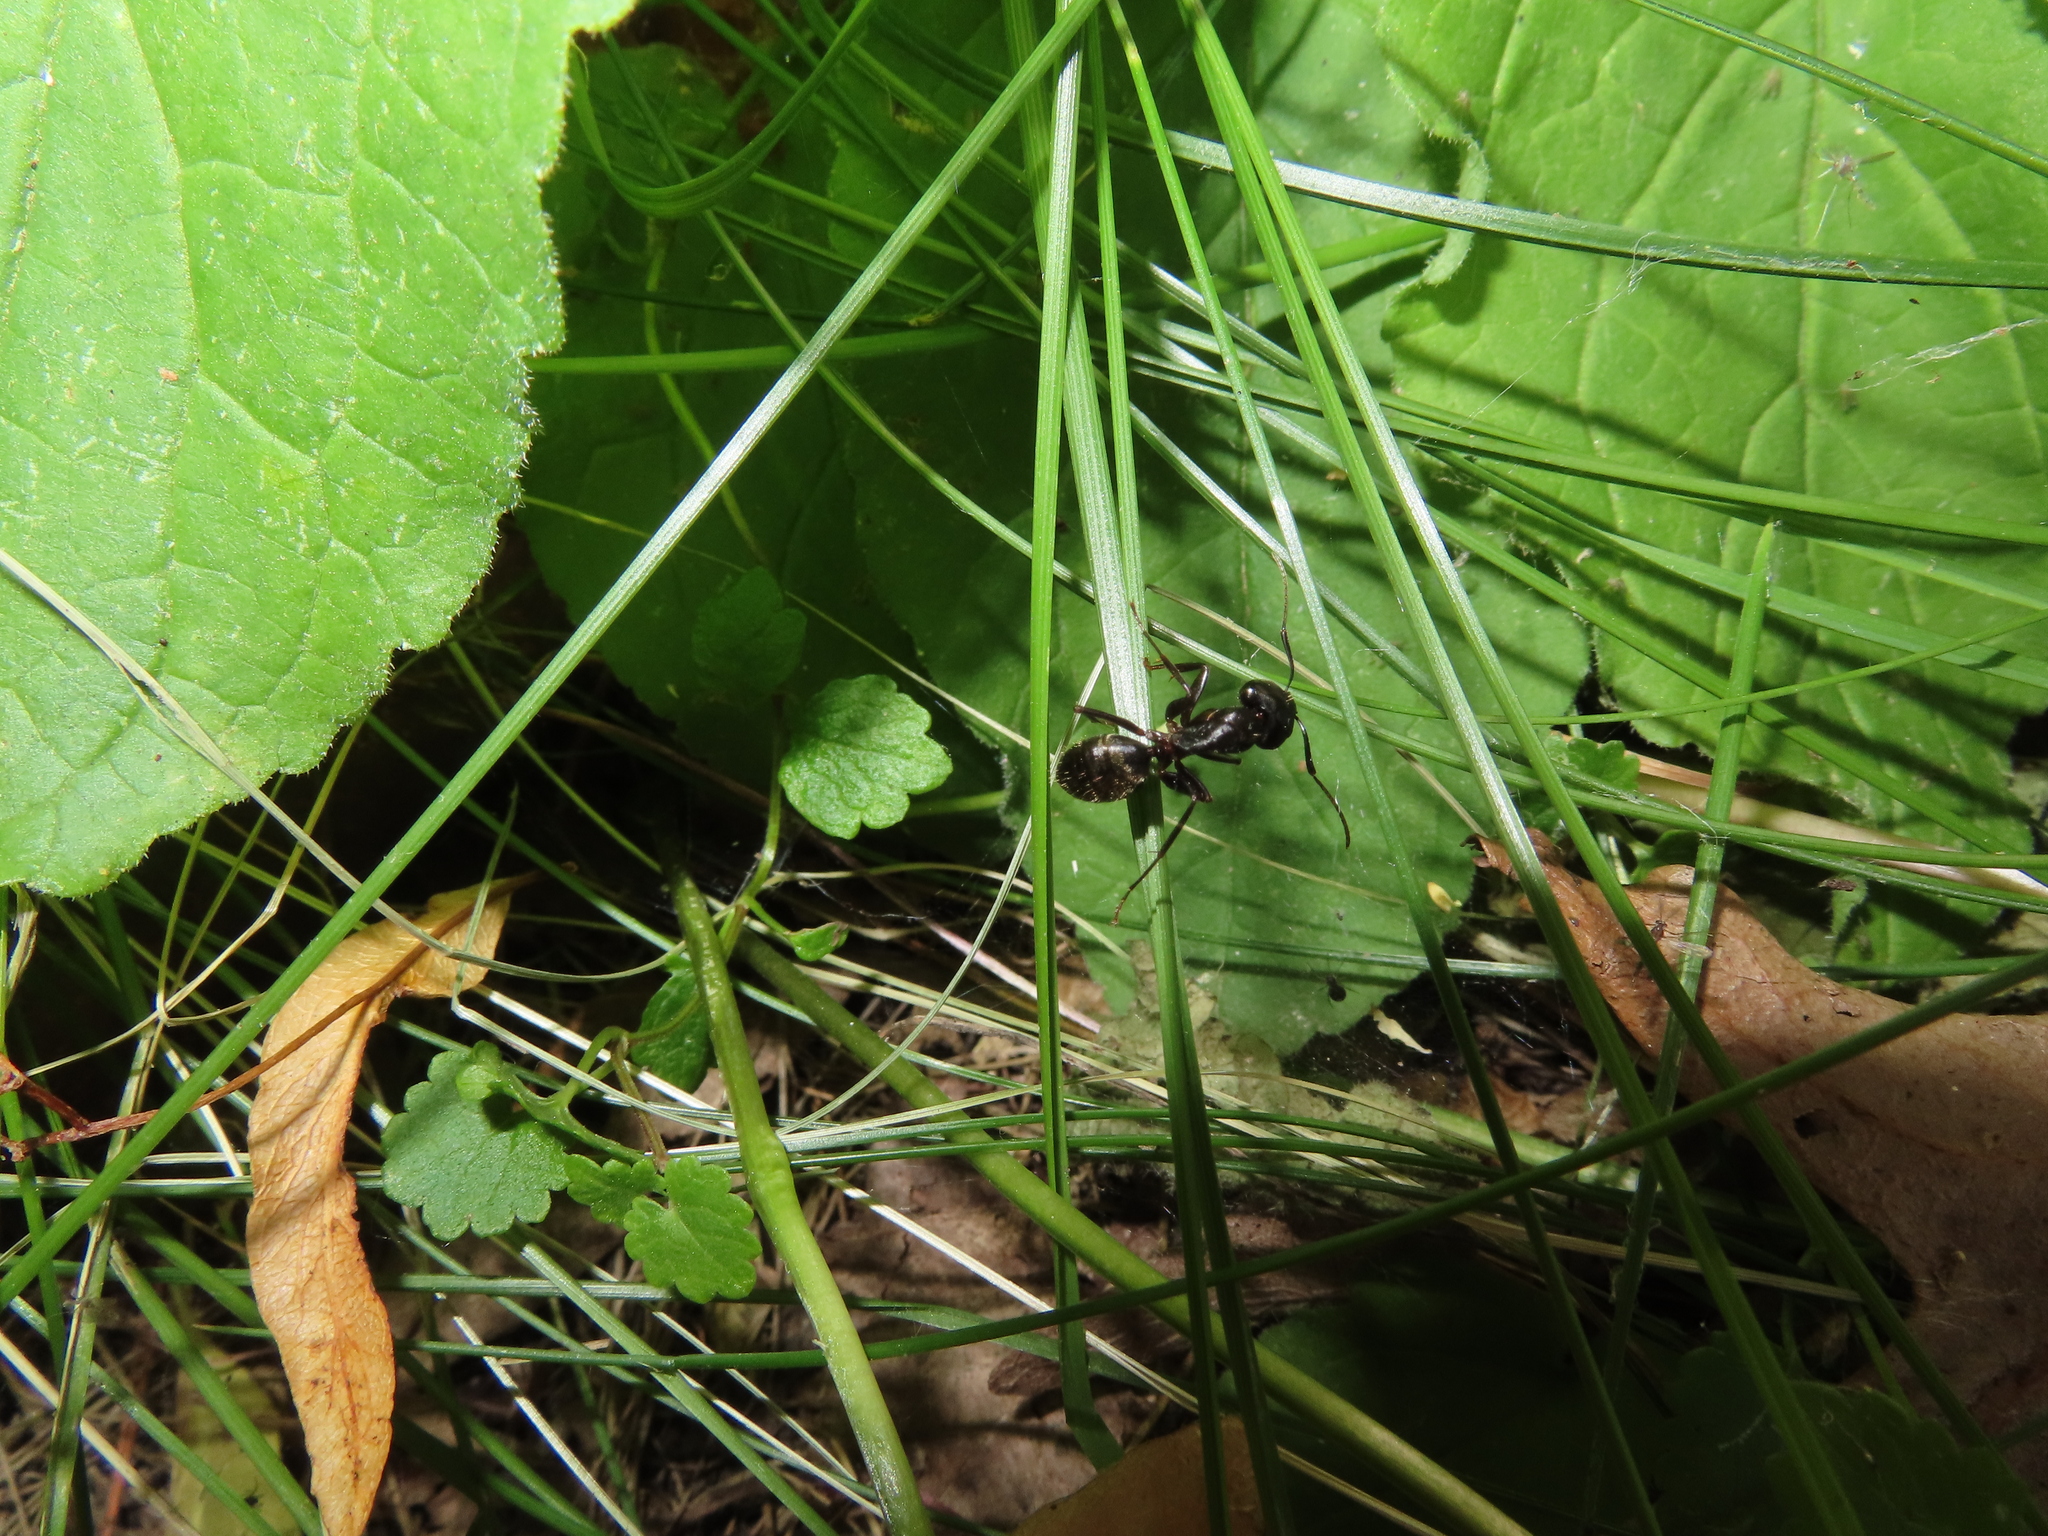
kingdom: Animalia
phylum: Arthropoda
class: Insecta
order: Hymenoptera
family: Formicidae
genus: Camponotus
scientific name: Camponotus pennsylvanicus
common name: Black carpenter ant
